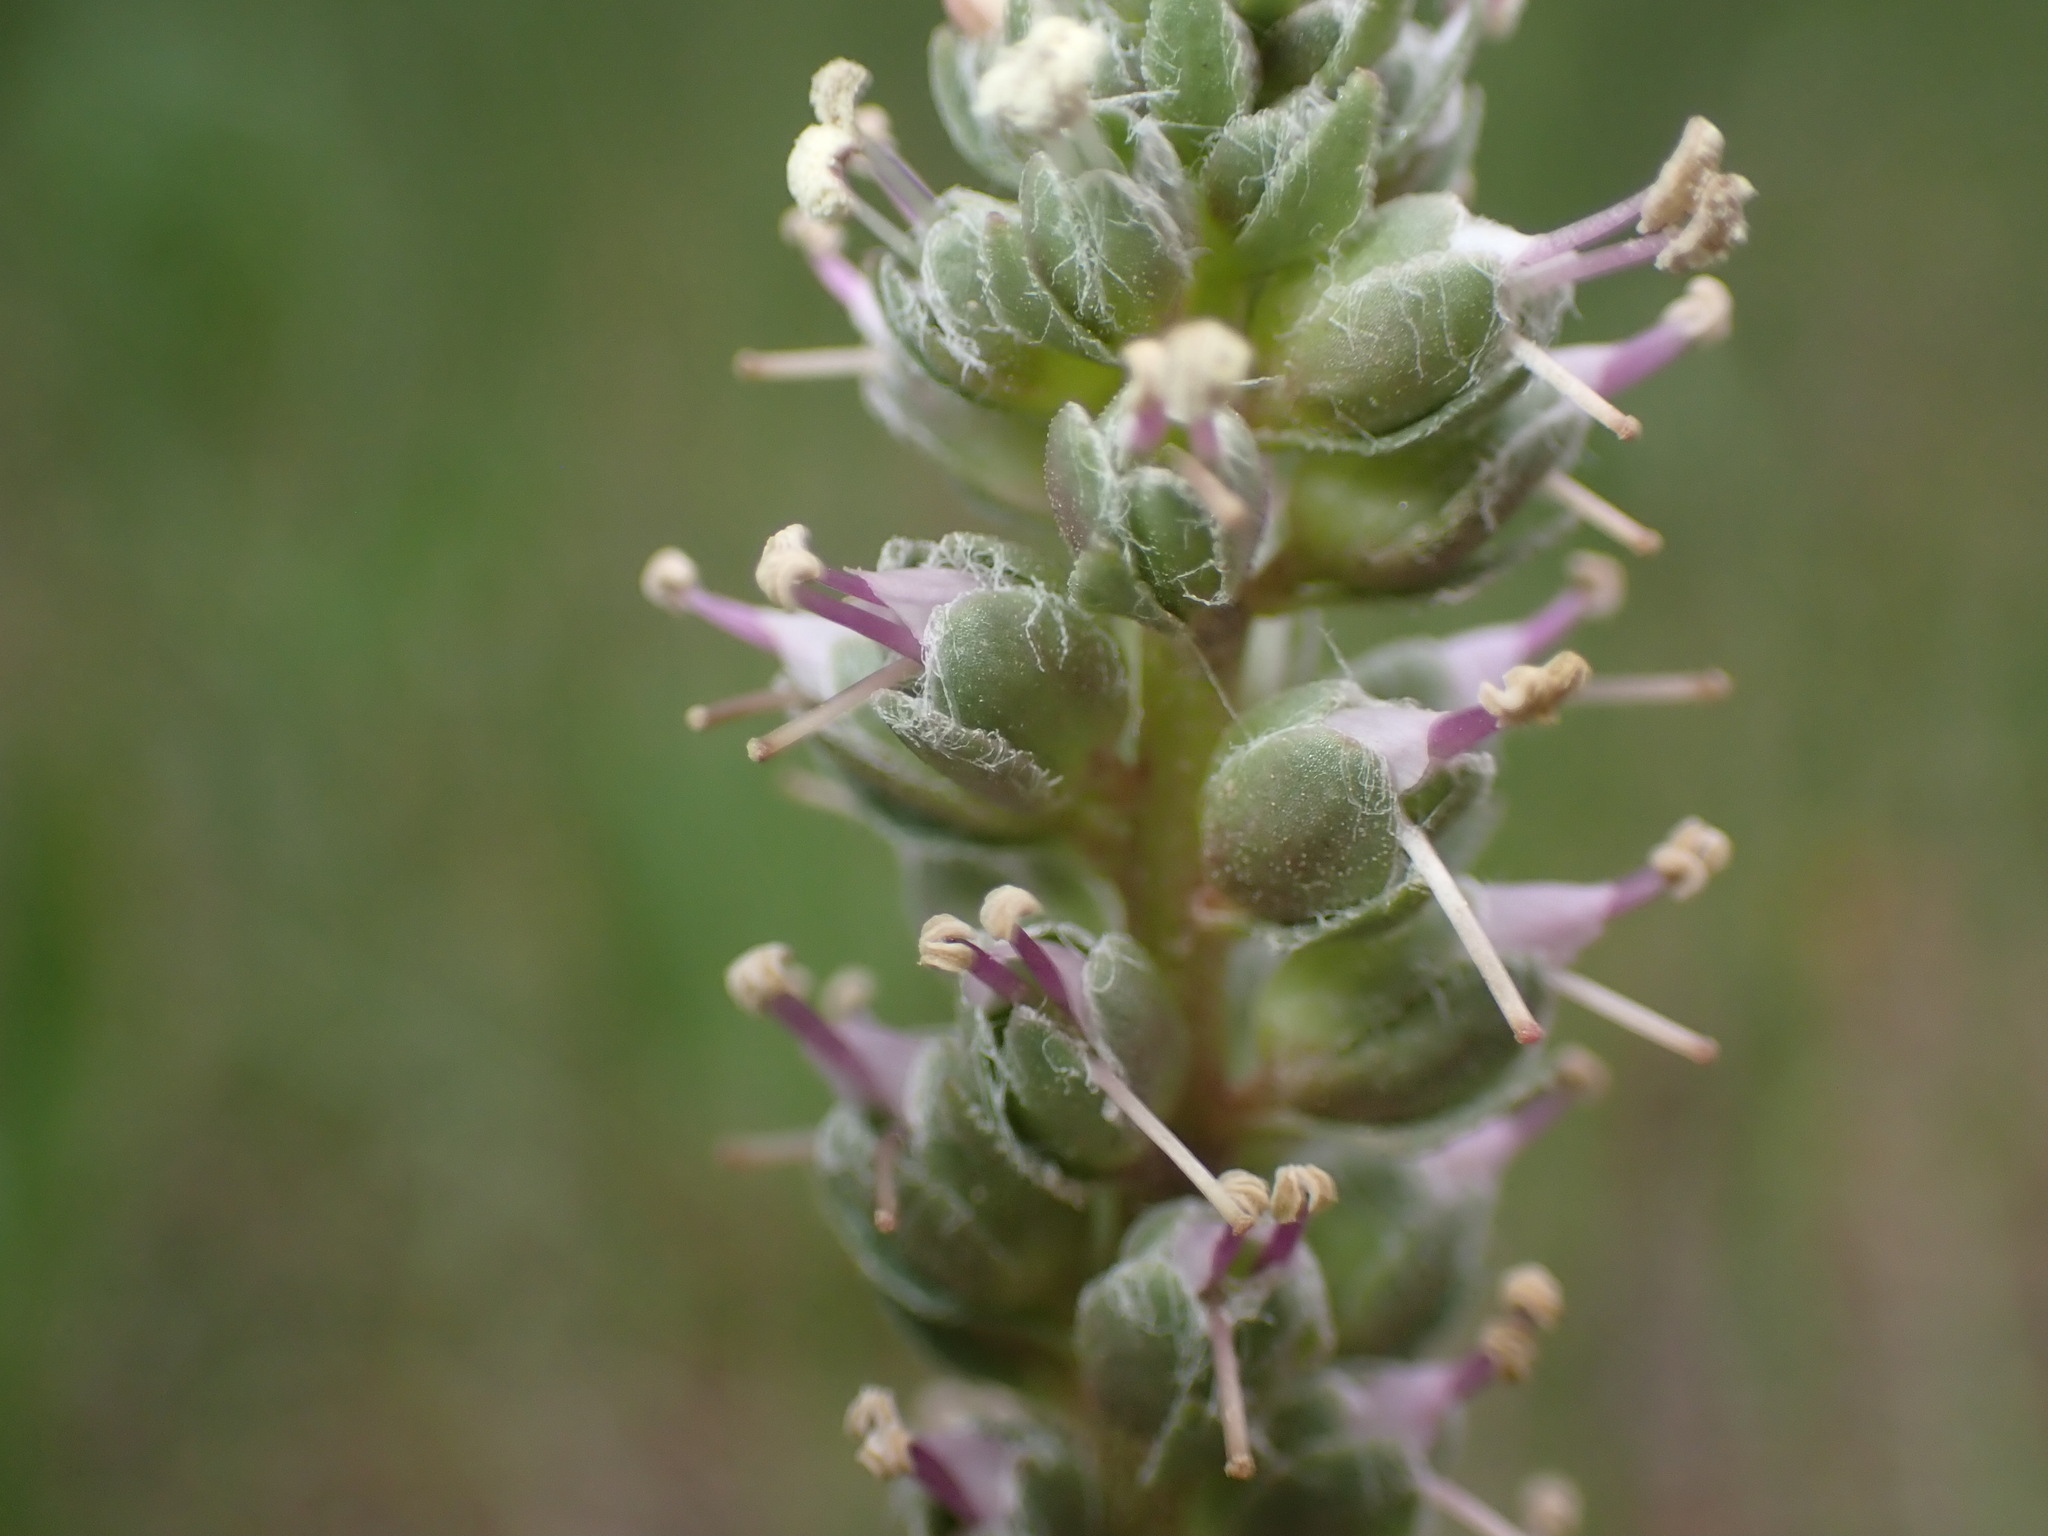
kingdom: Plantae
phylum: Tracheophyta
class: Magnoliopsida
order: Lamiales
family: Plantaginaceae
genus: Veronica
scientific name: Veronica plantaginea
